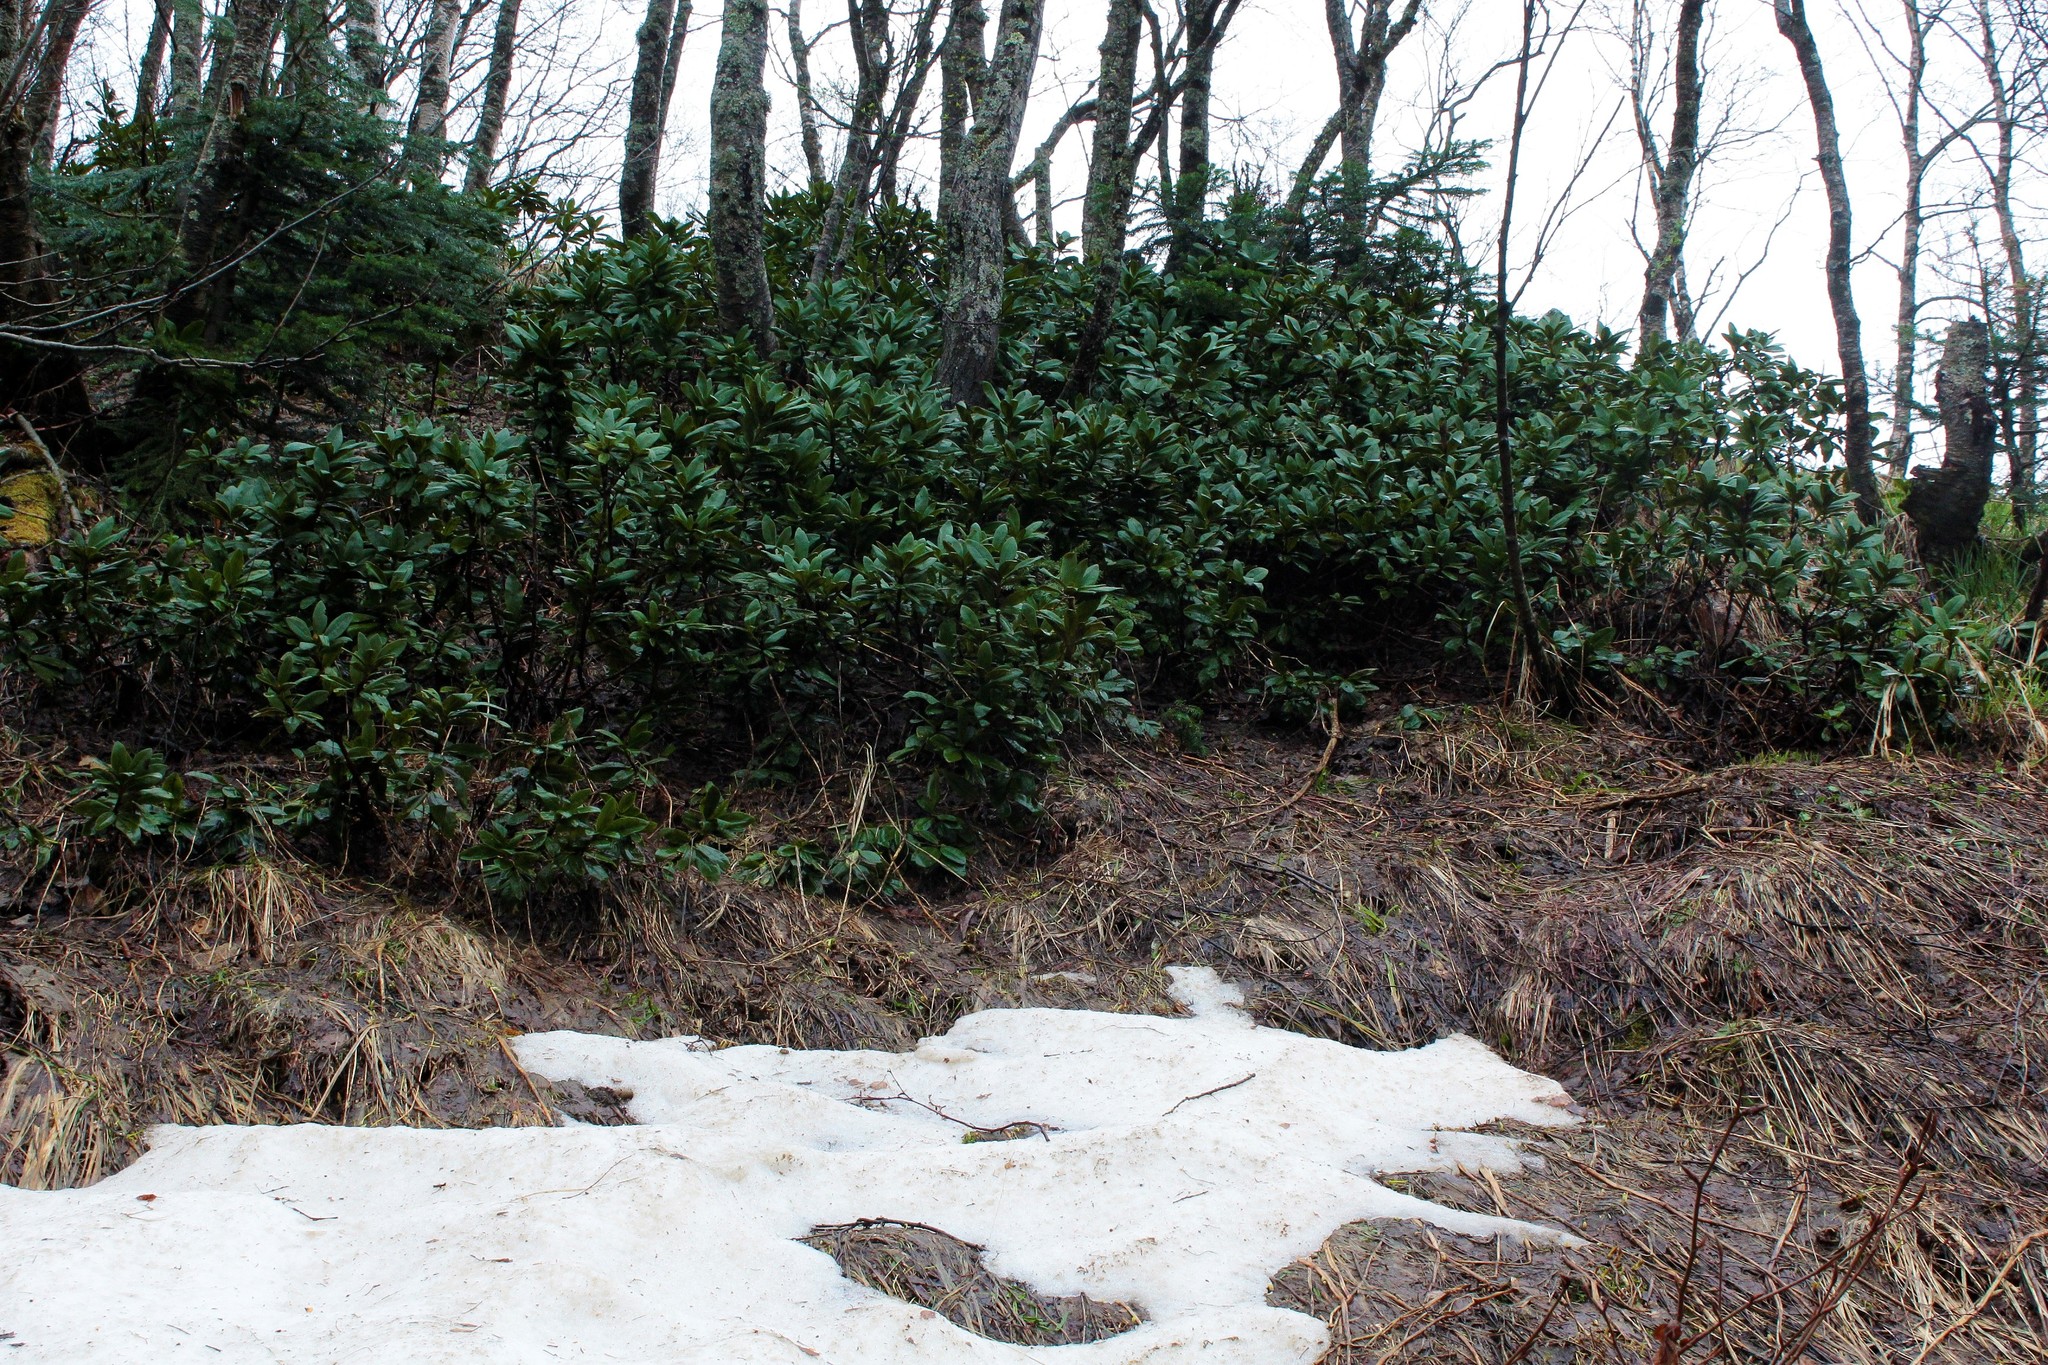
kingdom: Plantae
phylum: Tracheophyta
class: Magnoliopsida
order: Ericales
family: Ericaceae
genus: Rhododendron
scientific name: Rhododendron caucasicum
